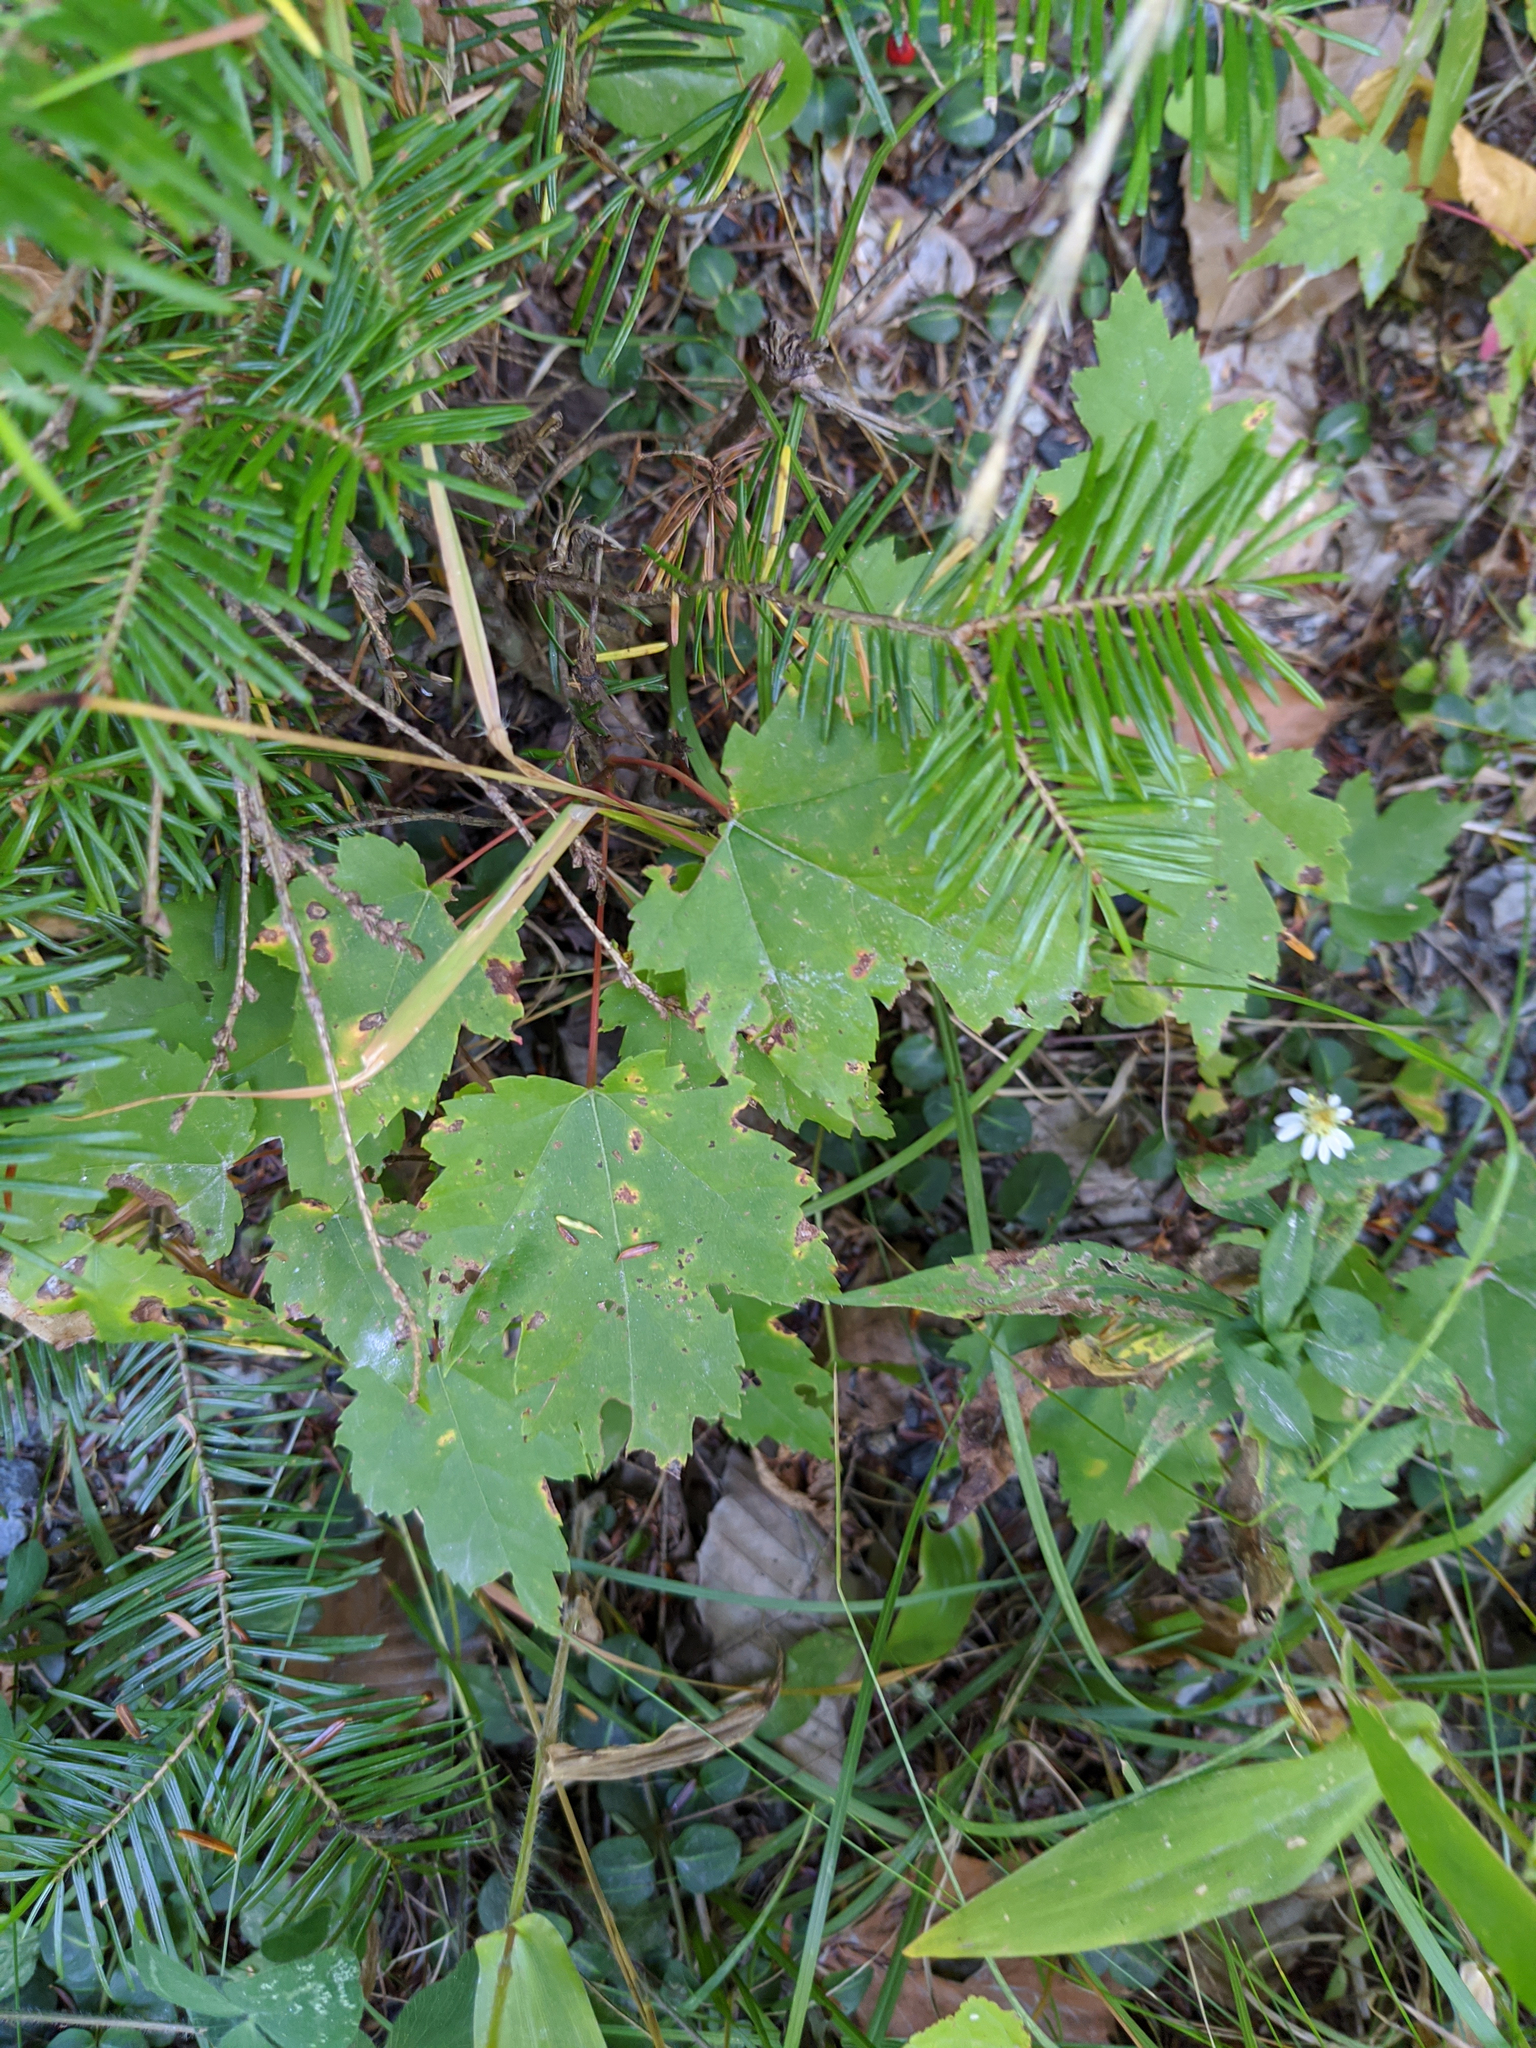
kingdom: Plantae
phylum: Tracheophyta
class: Magnoliopsida
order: Sapindales
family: Sapindaceae
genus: Acer
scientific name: Acer rubrum
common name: Red maple
